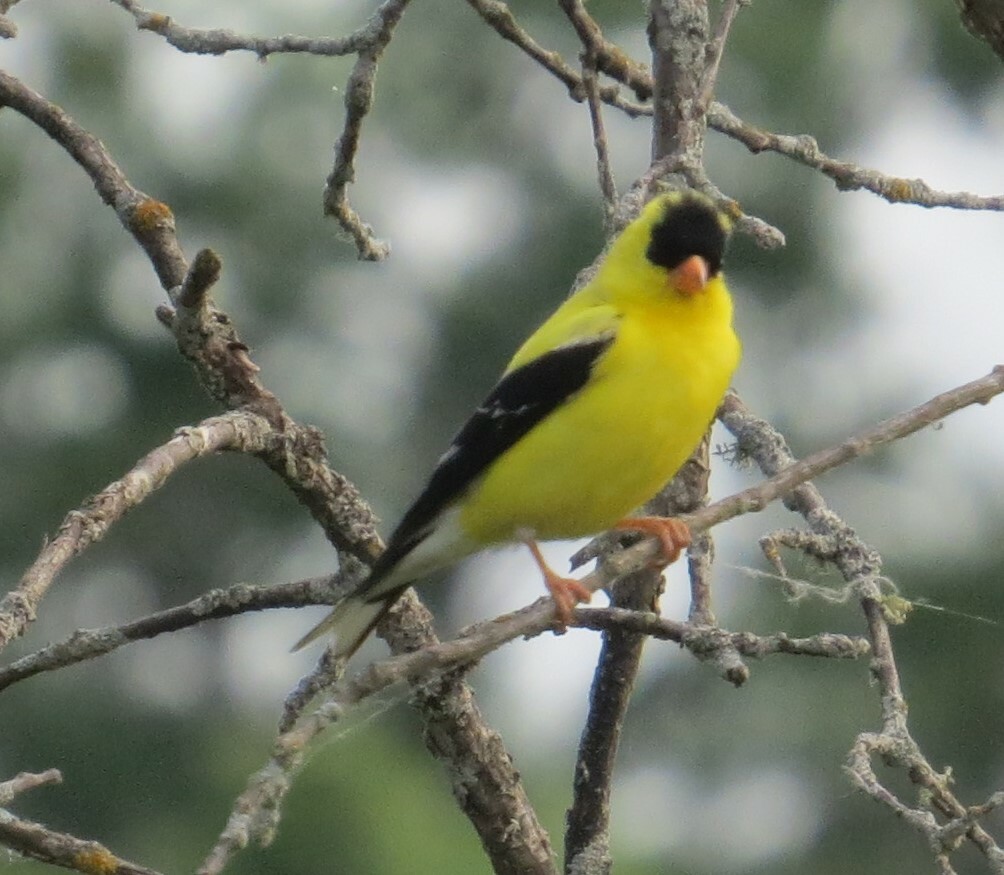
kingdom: Animalia
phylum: Chordata
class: Aves
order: Passeriformes
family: Fringillidae
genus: Spinus
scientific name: Spinus tristis
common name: American goldfinch
